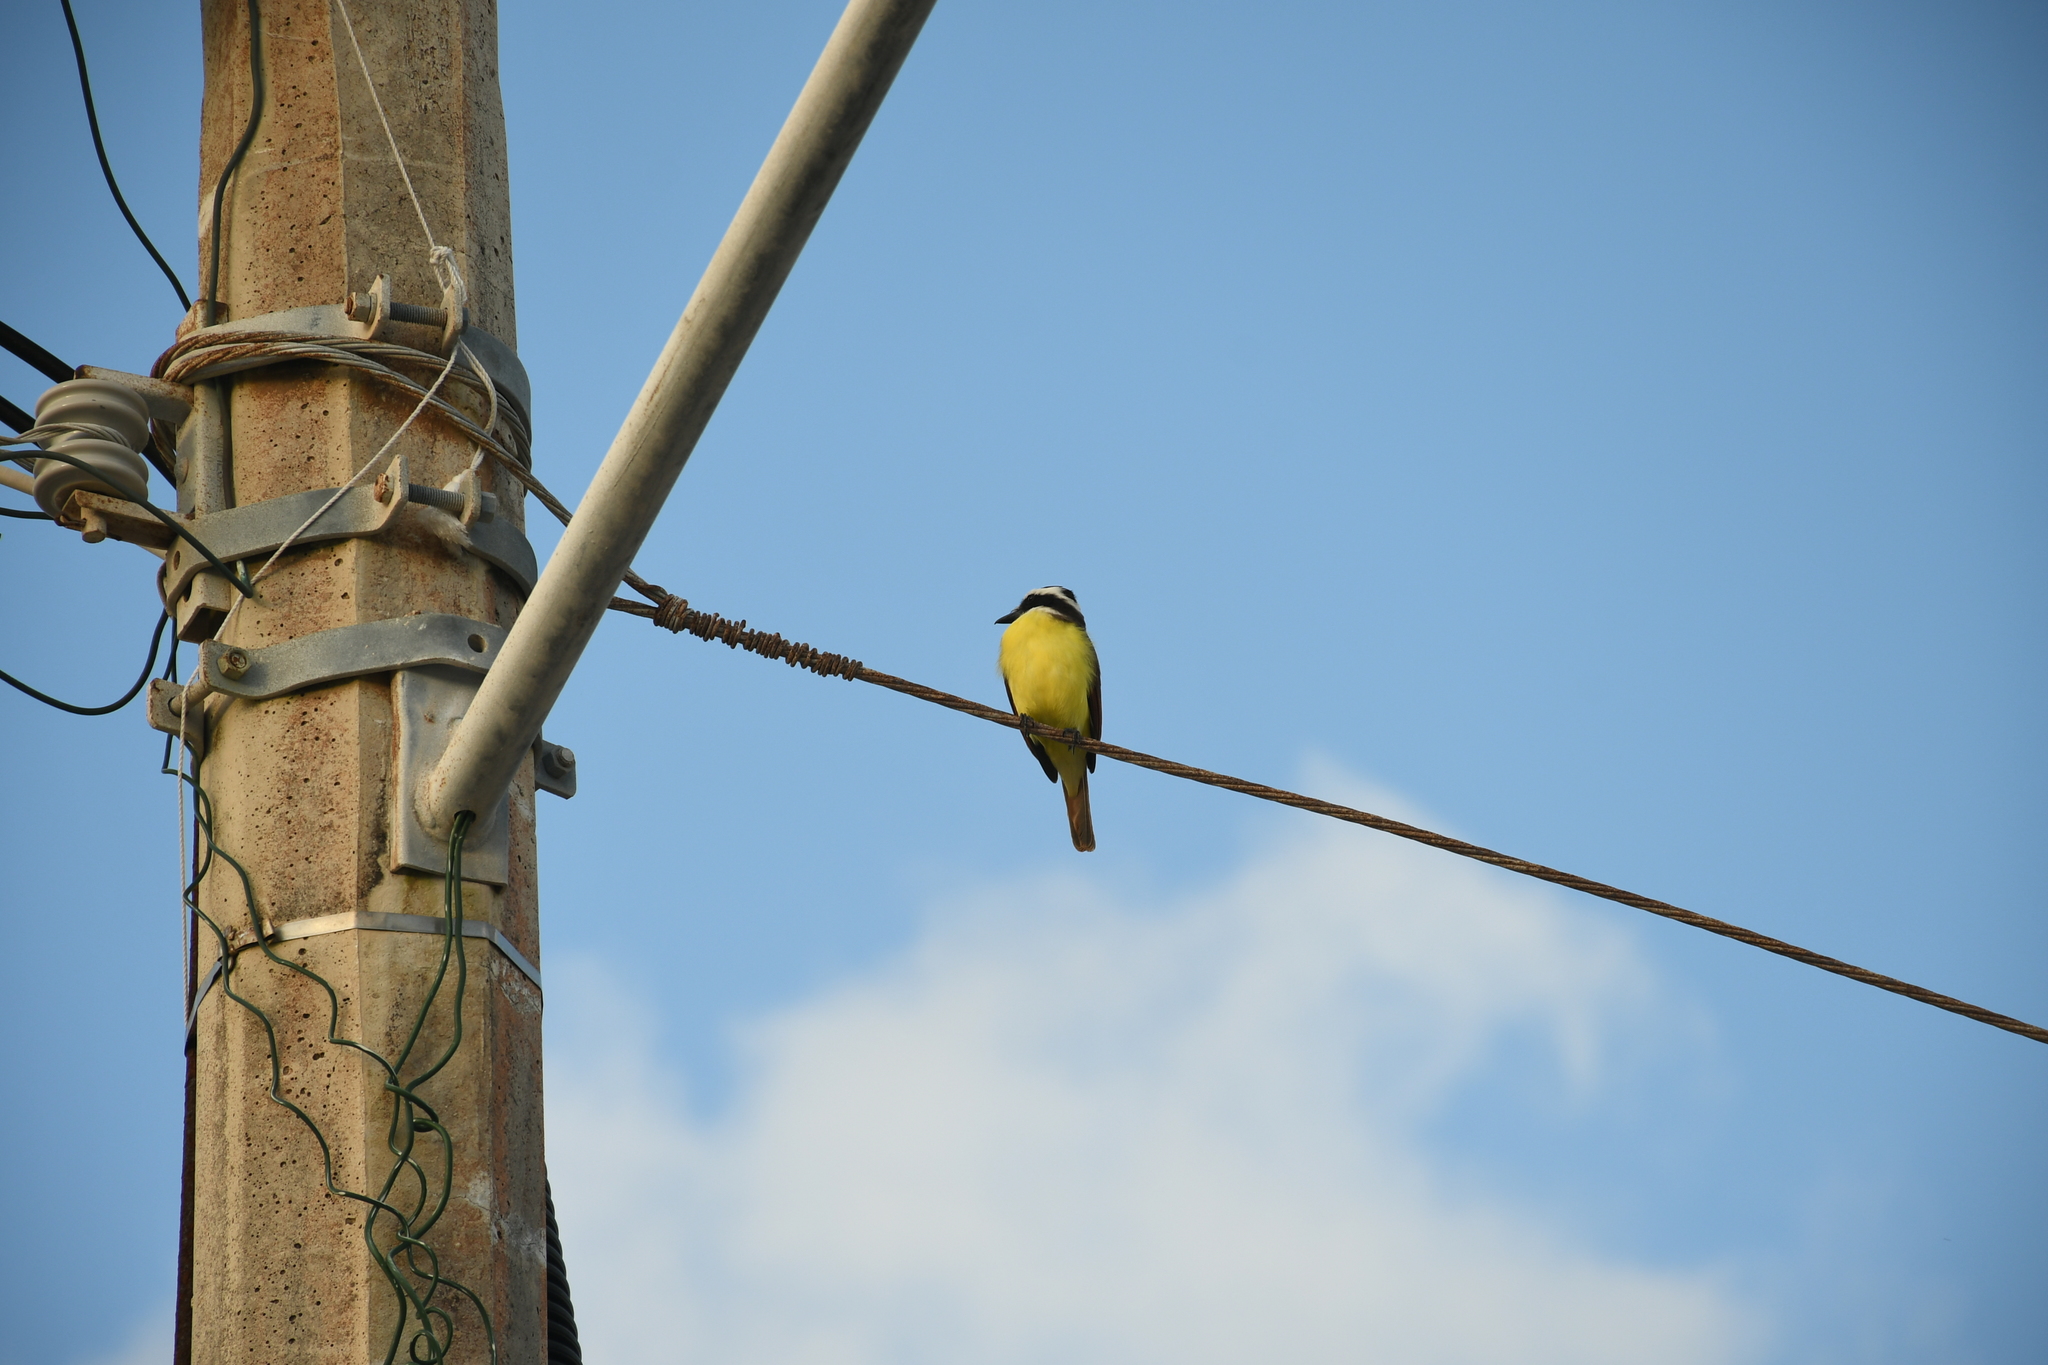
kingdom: Animalia
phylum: Chordata
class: Aves
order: Passeriformes
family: Tyrannidae
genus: Pitangus
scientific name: Pitangus sulphuratus
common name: Great kiskadee
